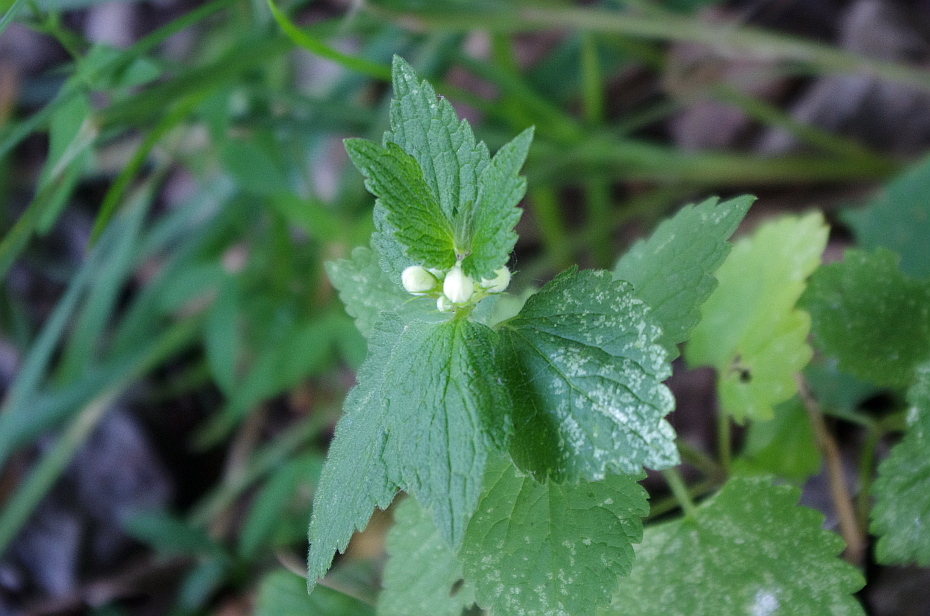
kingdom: Plantae
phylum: Tracheophyta
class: Magnoliopsida
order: Lamiales
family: Lamiaceae
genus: Lamium
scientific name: Lamium album
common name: White dead-nettle
